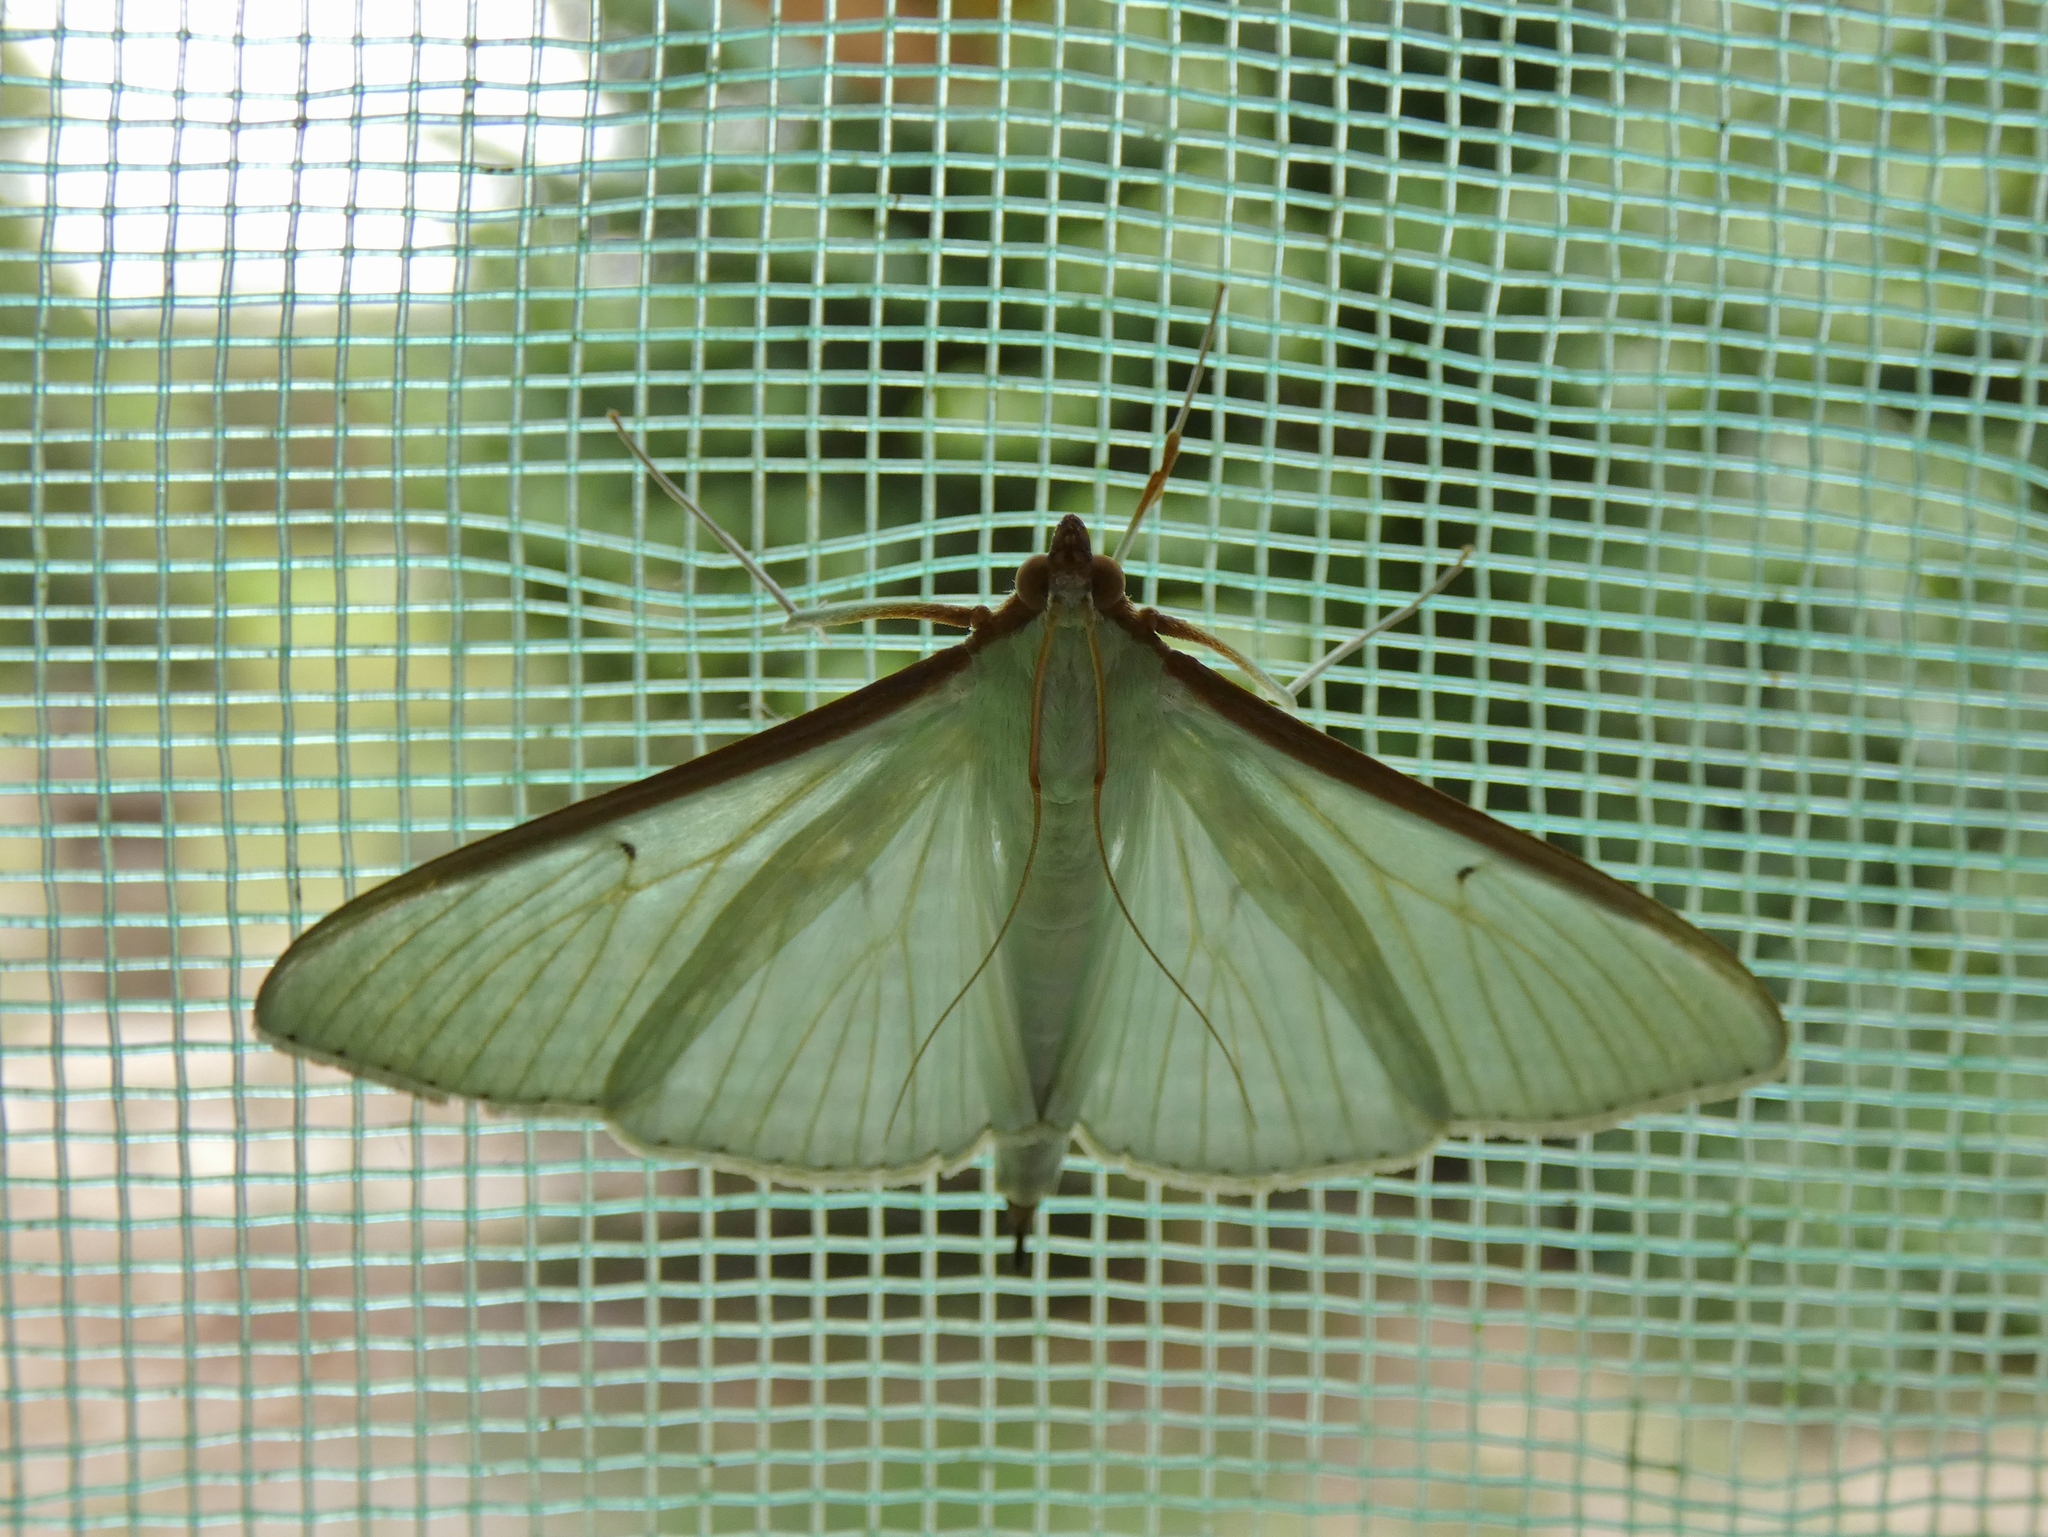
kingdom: Animalia
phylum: Arthropoda
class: Insecta
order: Lepidoptera
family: Crambidae
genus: Stemorrhages
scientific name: Stemorrhages sericea
